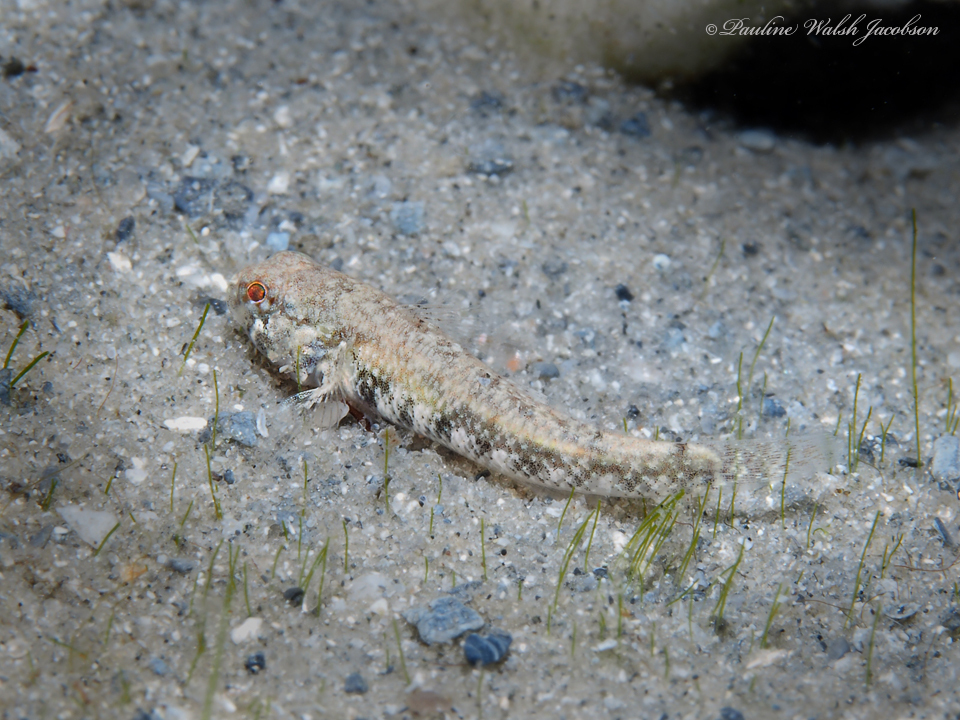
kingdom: Animalia
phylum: Chordata
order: Perciformes
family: Gobiidae
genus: Bathygobius
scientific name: Bathygobius mystacium
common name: Island frillfin
